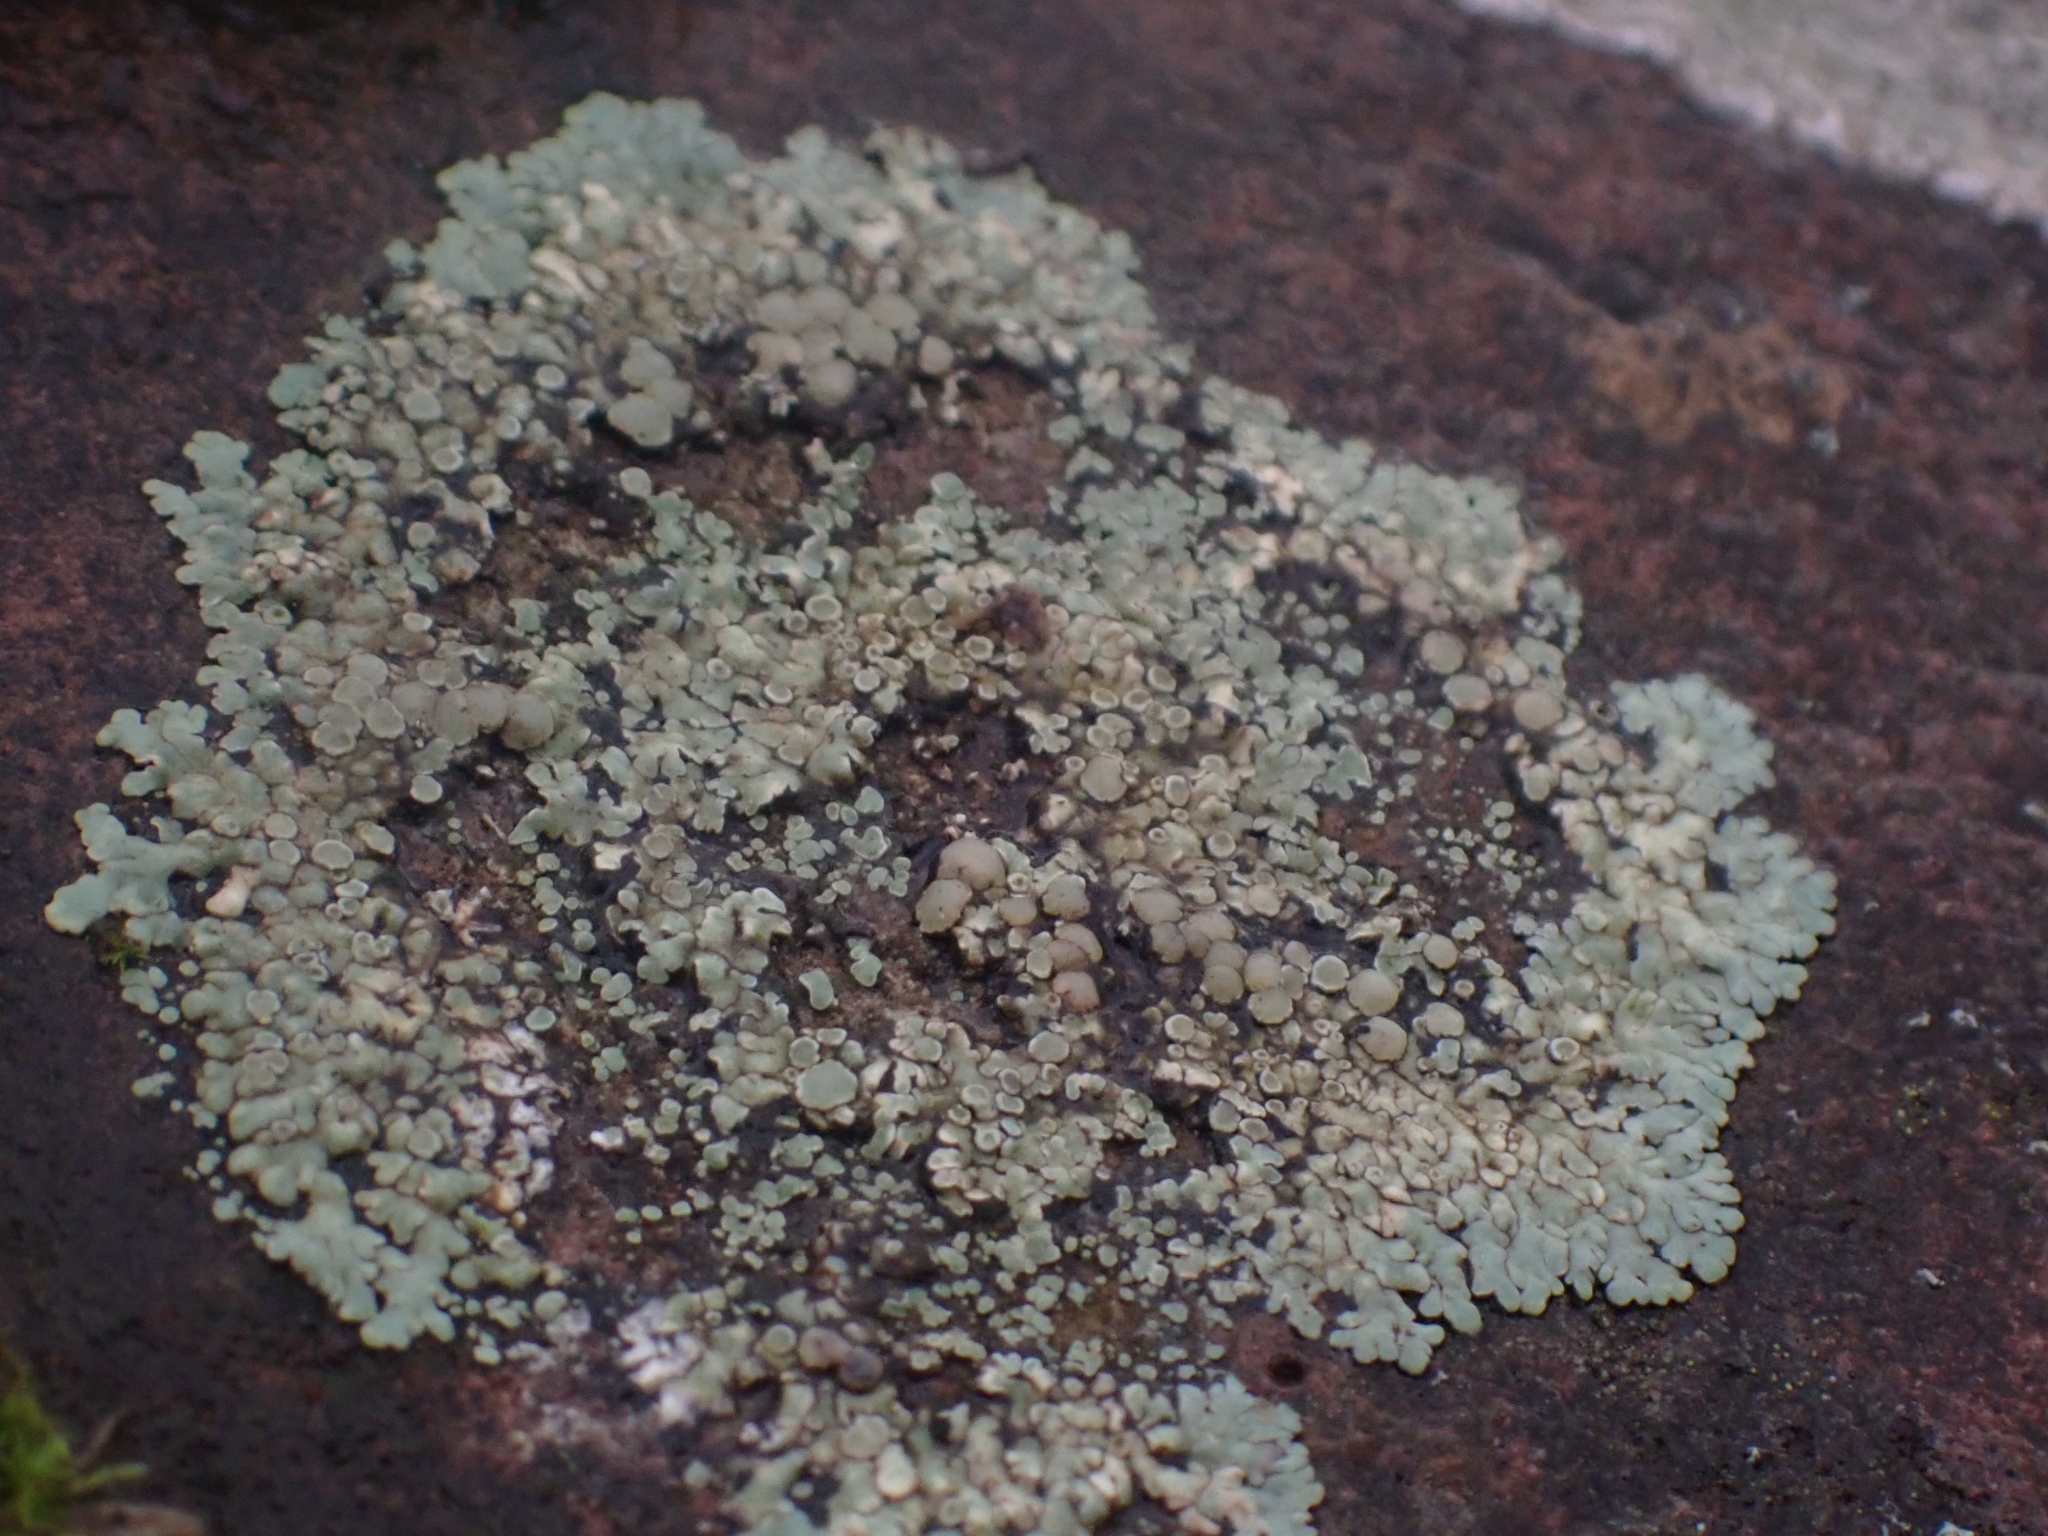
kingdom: Fungi
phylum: Ascomycota
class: Lecanoromycetes
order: Lecanorales
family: Lecanoraceae
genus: Protoparmeliopsis
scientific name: Protoparmeliopsis muralis
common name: Stonewall rim lichen
